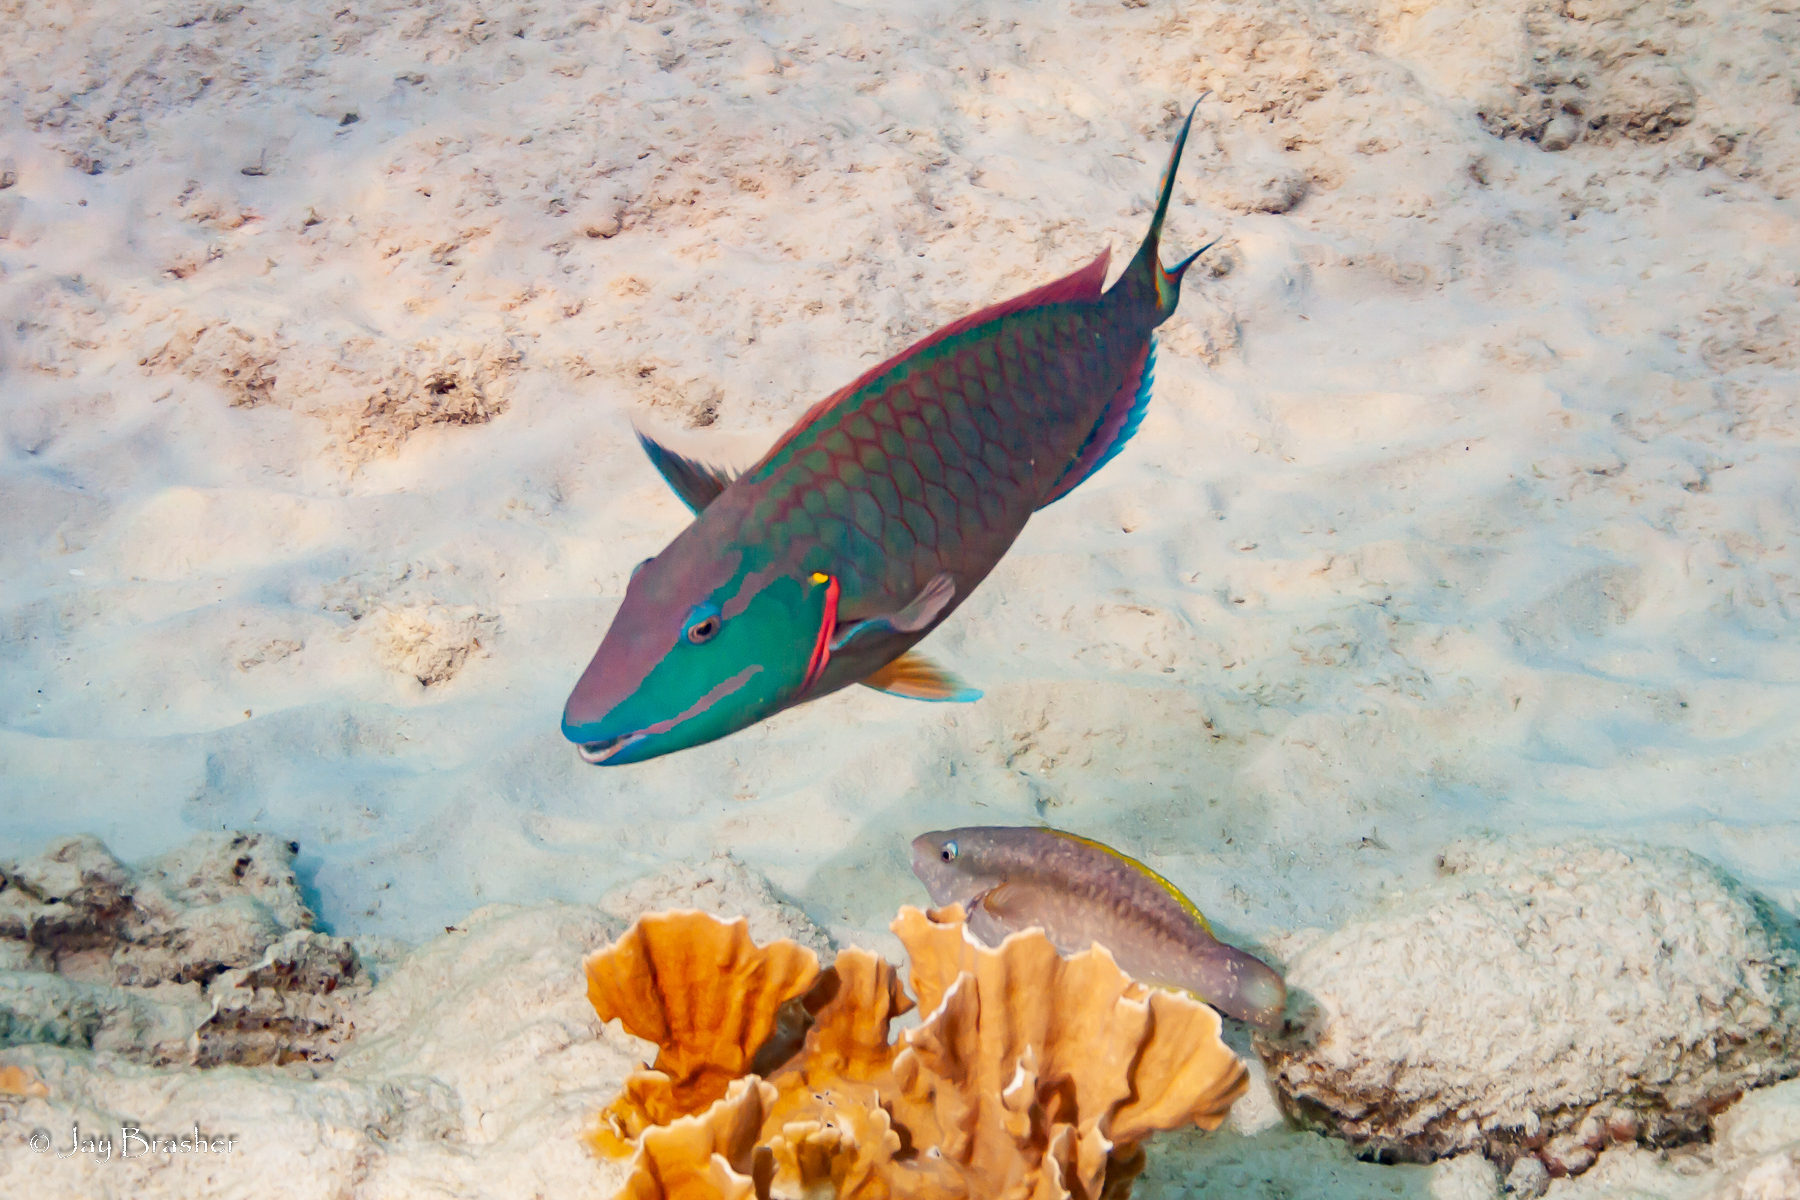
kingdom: Animalia
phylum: Chordata
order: Perciformes
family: Scaridae
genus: Scarus
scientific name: Scarus taeniopterus
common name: Princess parrotfish
